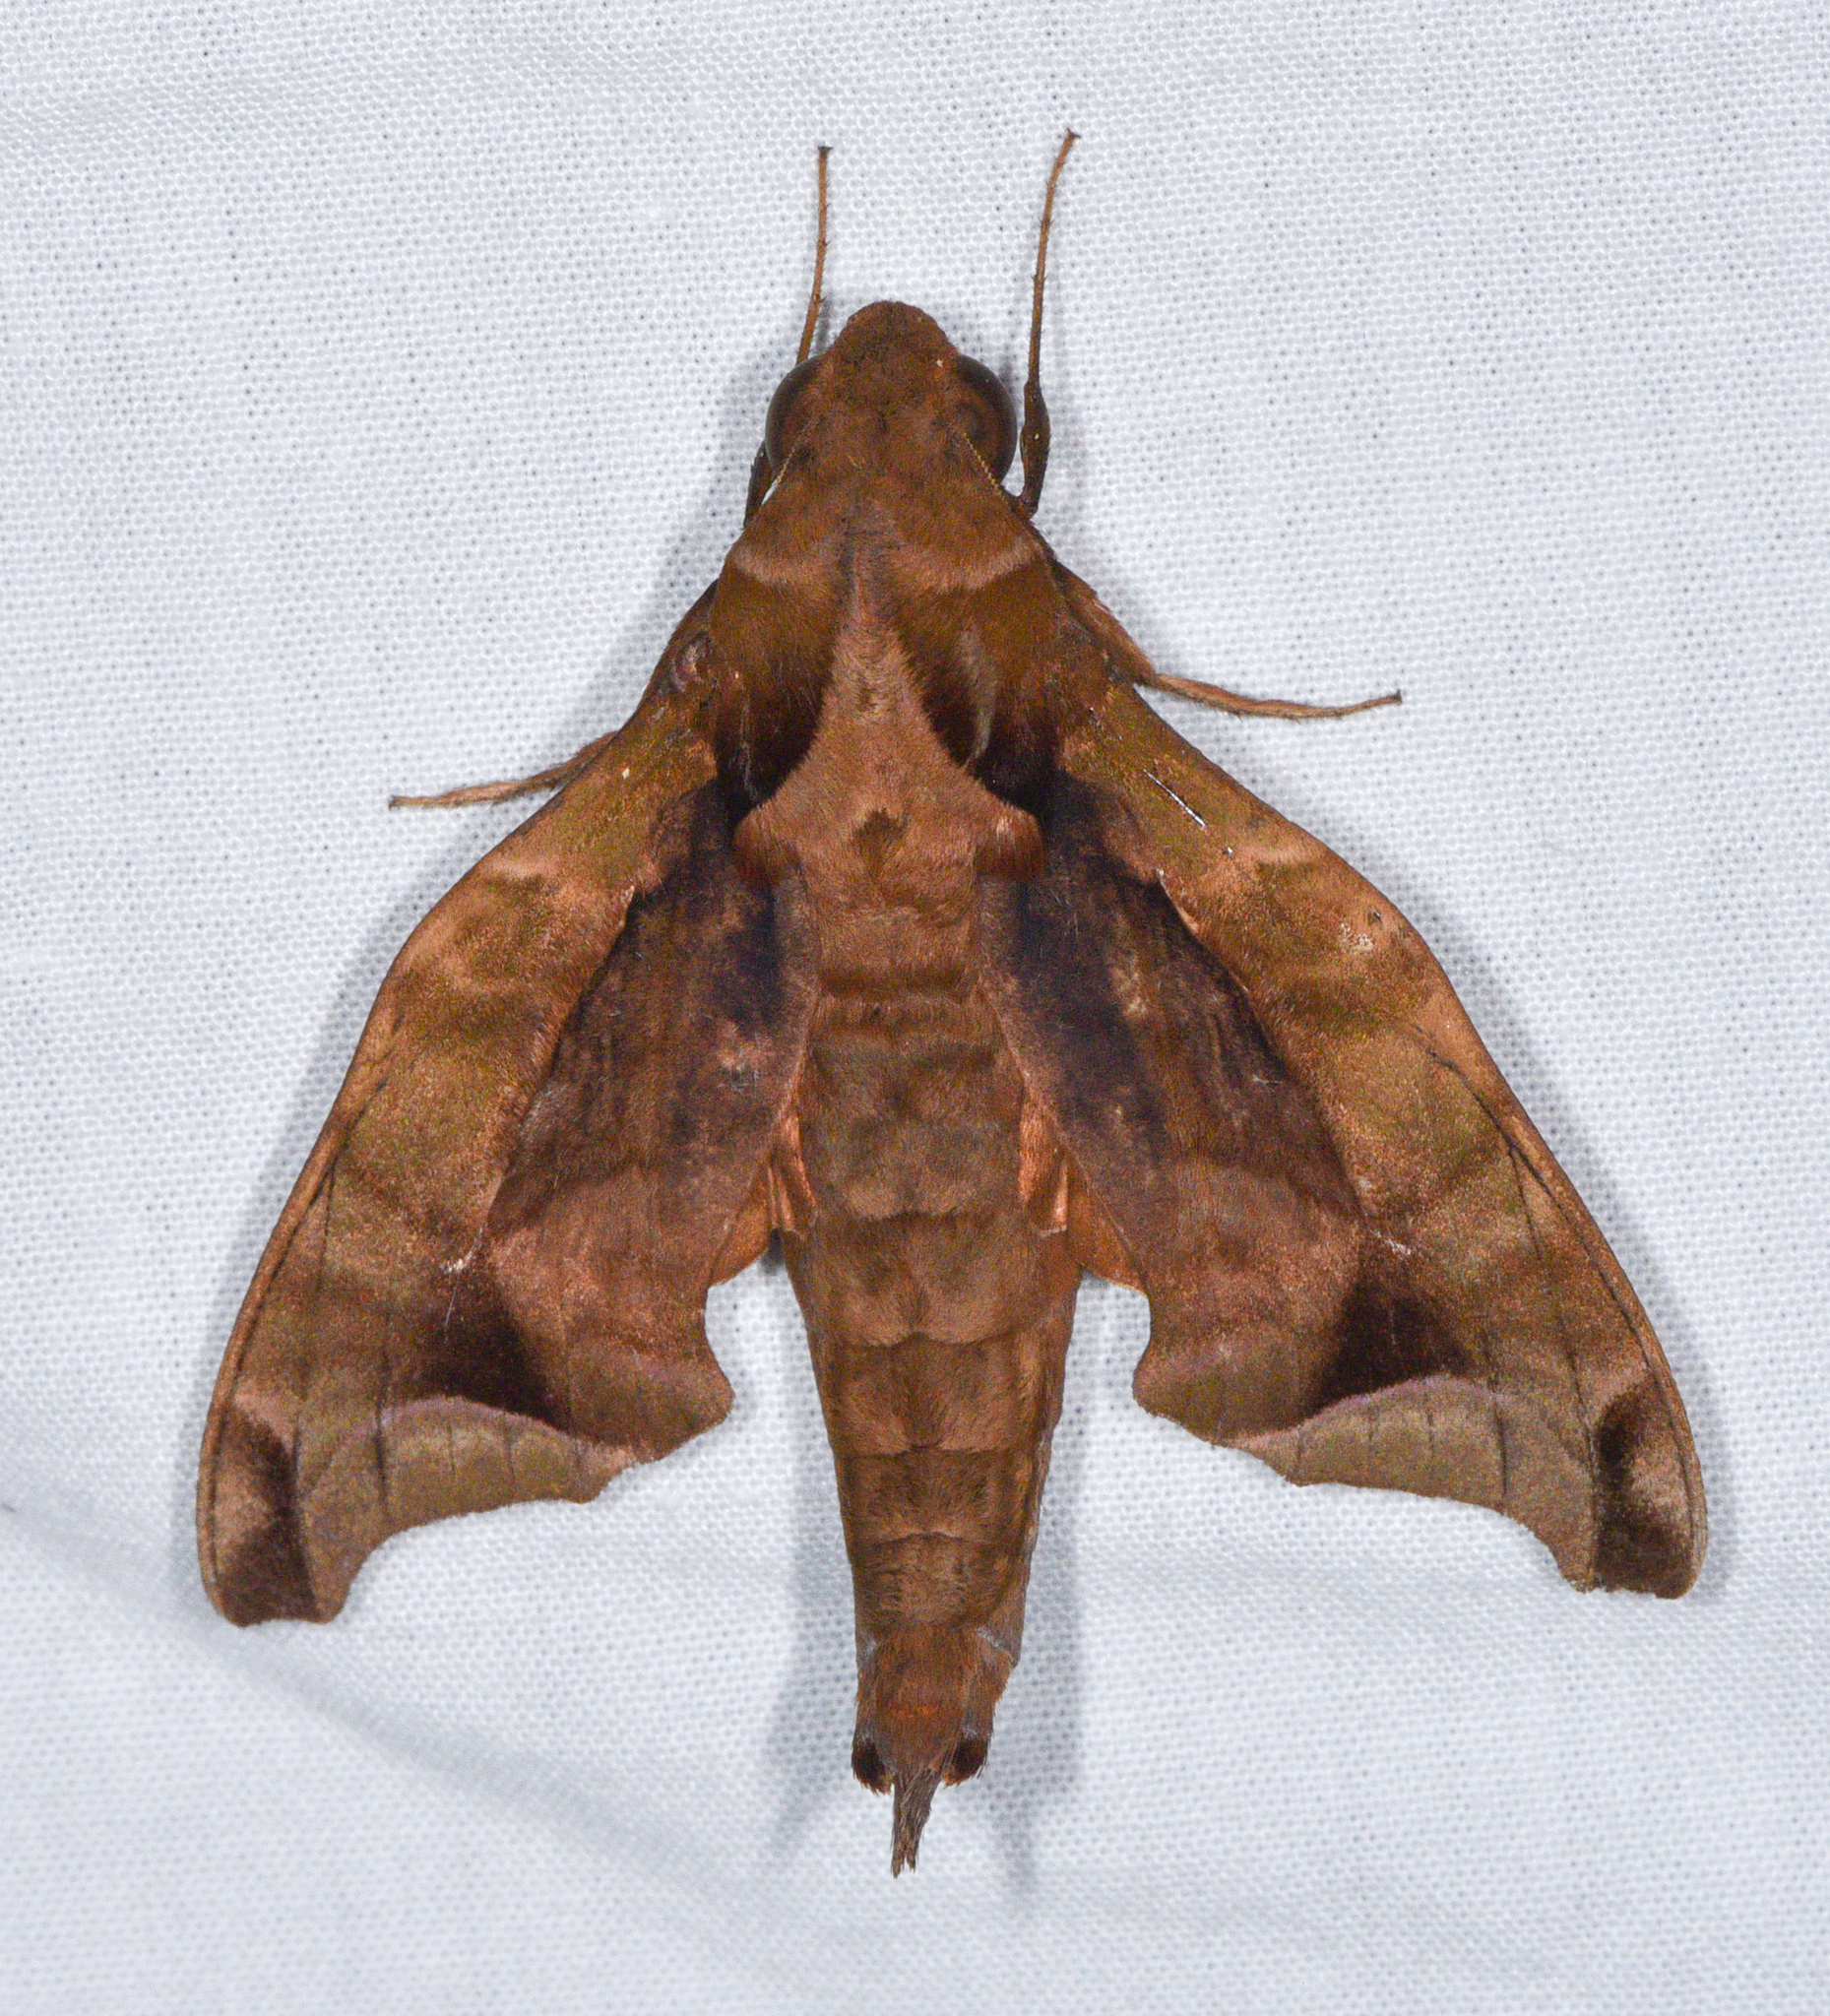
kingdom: Animalia
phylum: Arthropoda
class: Insecta
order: Lepidoptera
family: Sphingidae
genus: Enyo
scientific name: Enyo gorgon
